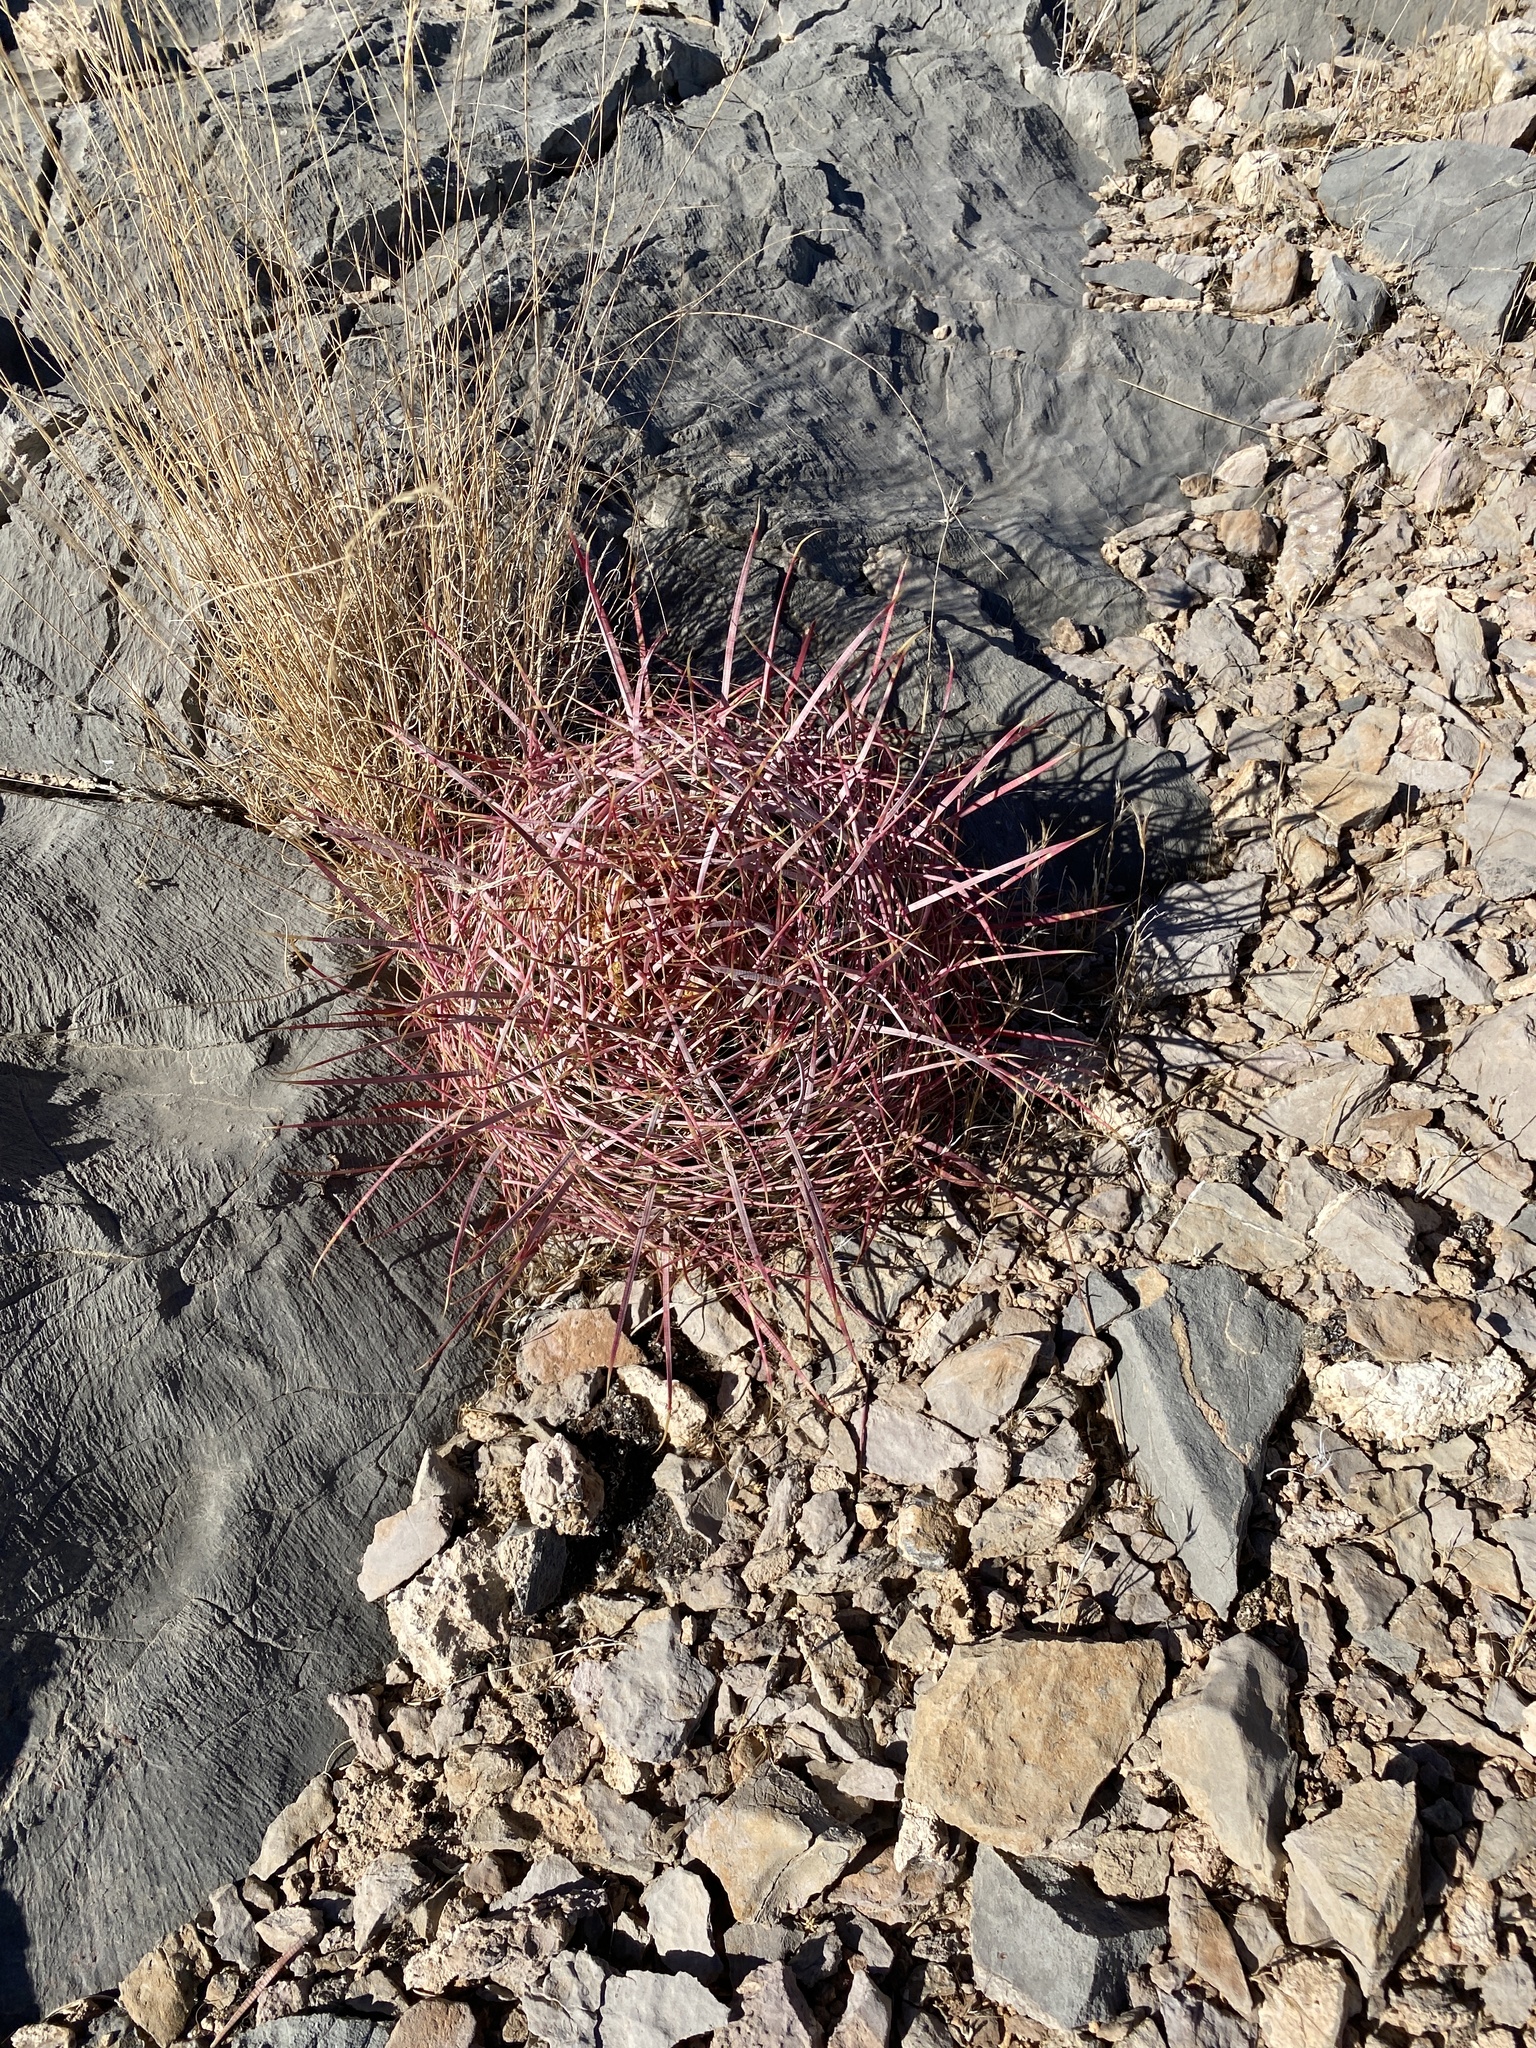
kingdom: Plantae
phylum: Tracheophyta
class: Magnoliopsida
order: Caryophyllales
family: Cactaceae
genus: Ferocactus
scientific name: Ferocactus cylindraceus
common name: California barrel cactus
